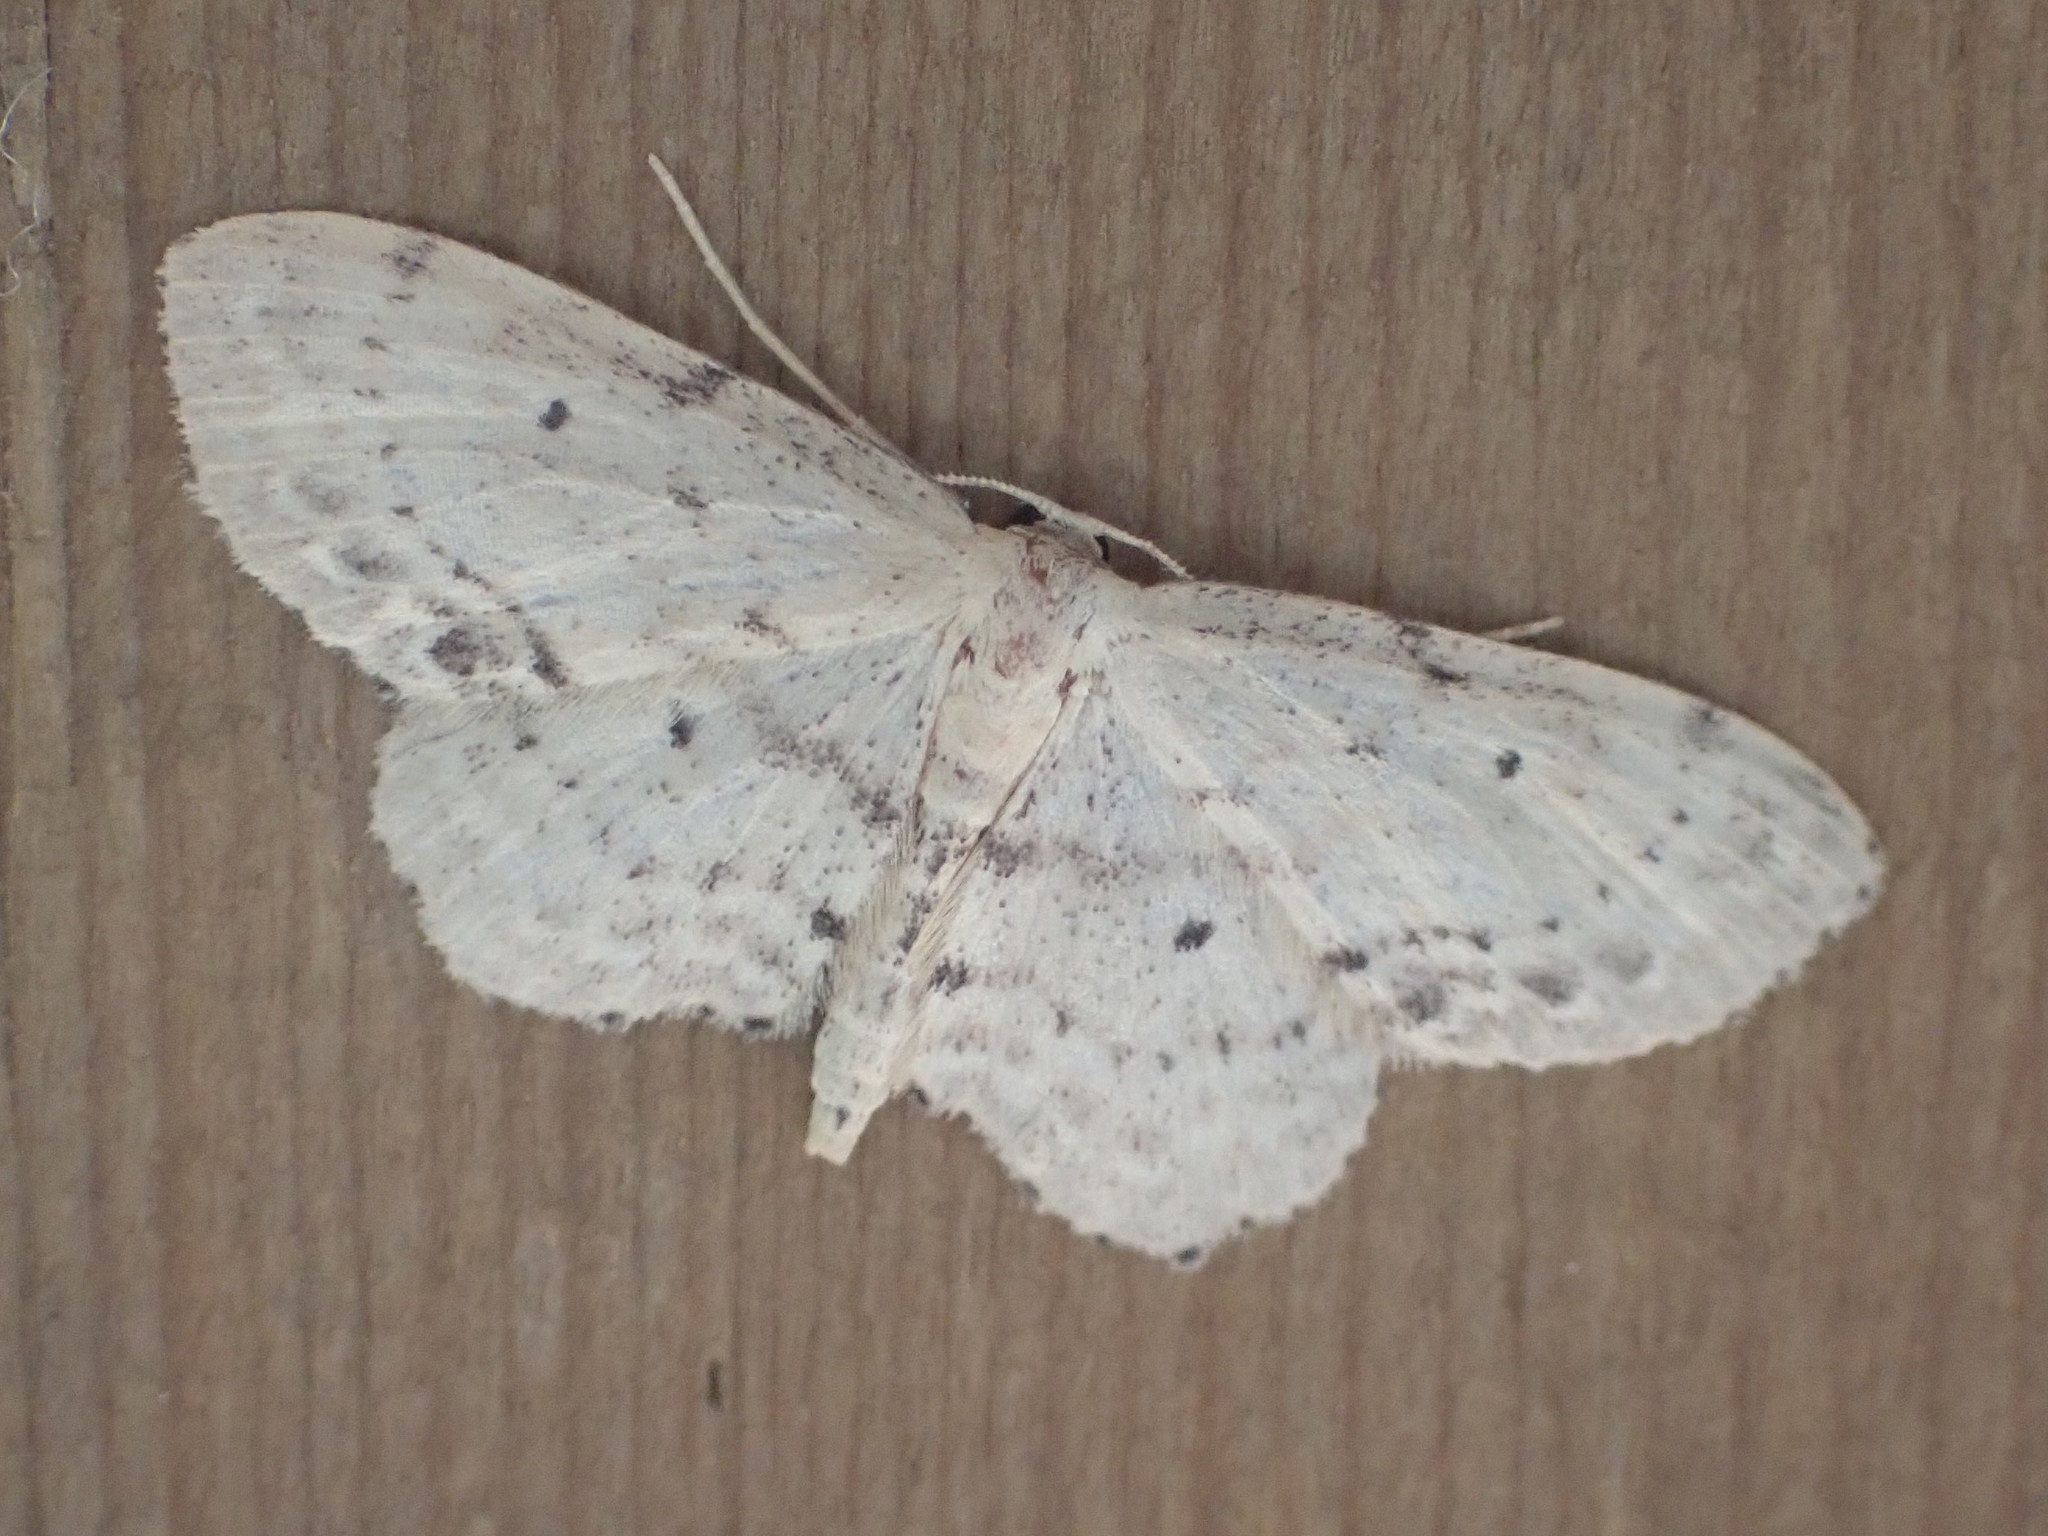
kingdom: Animalia
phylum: Arthropoda
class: Insecta
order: Lepidoptera
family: Geometridae
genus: Idaea
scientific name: Idaea dimidiata
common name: Single-dotted wave
